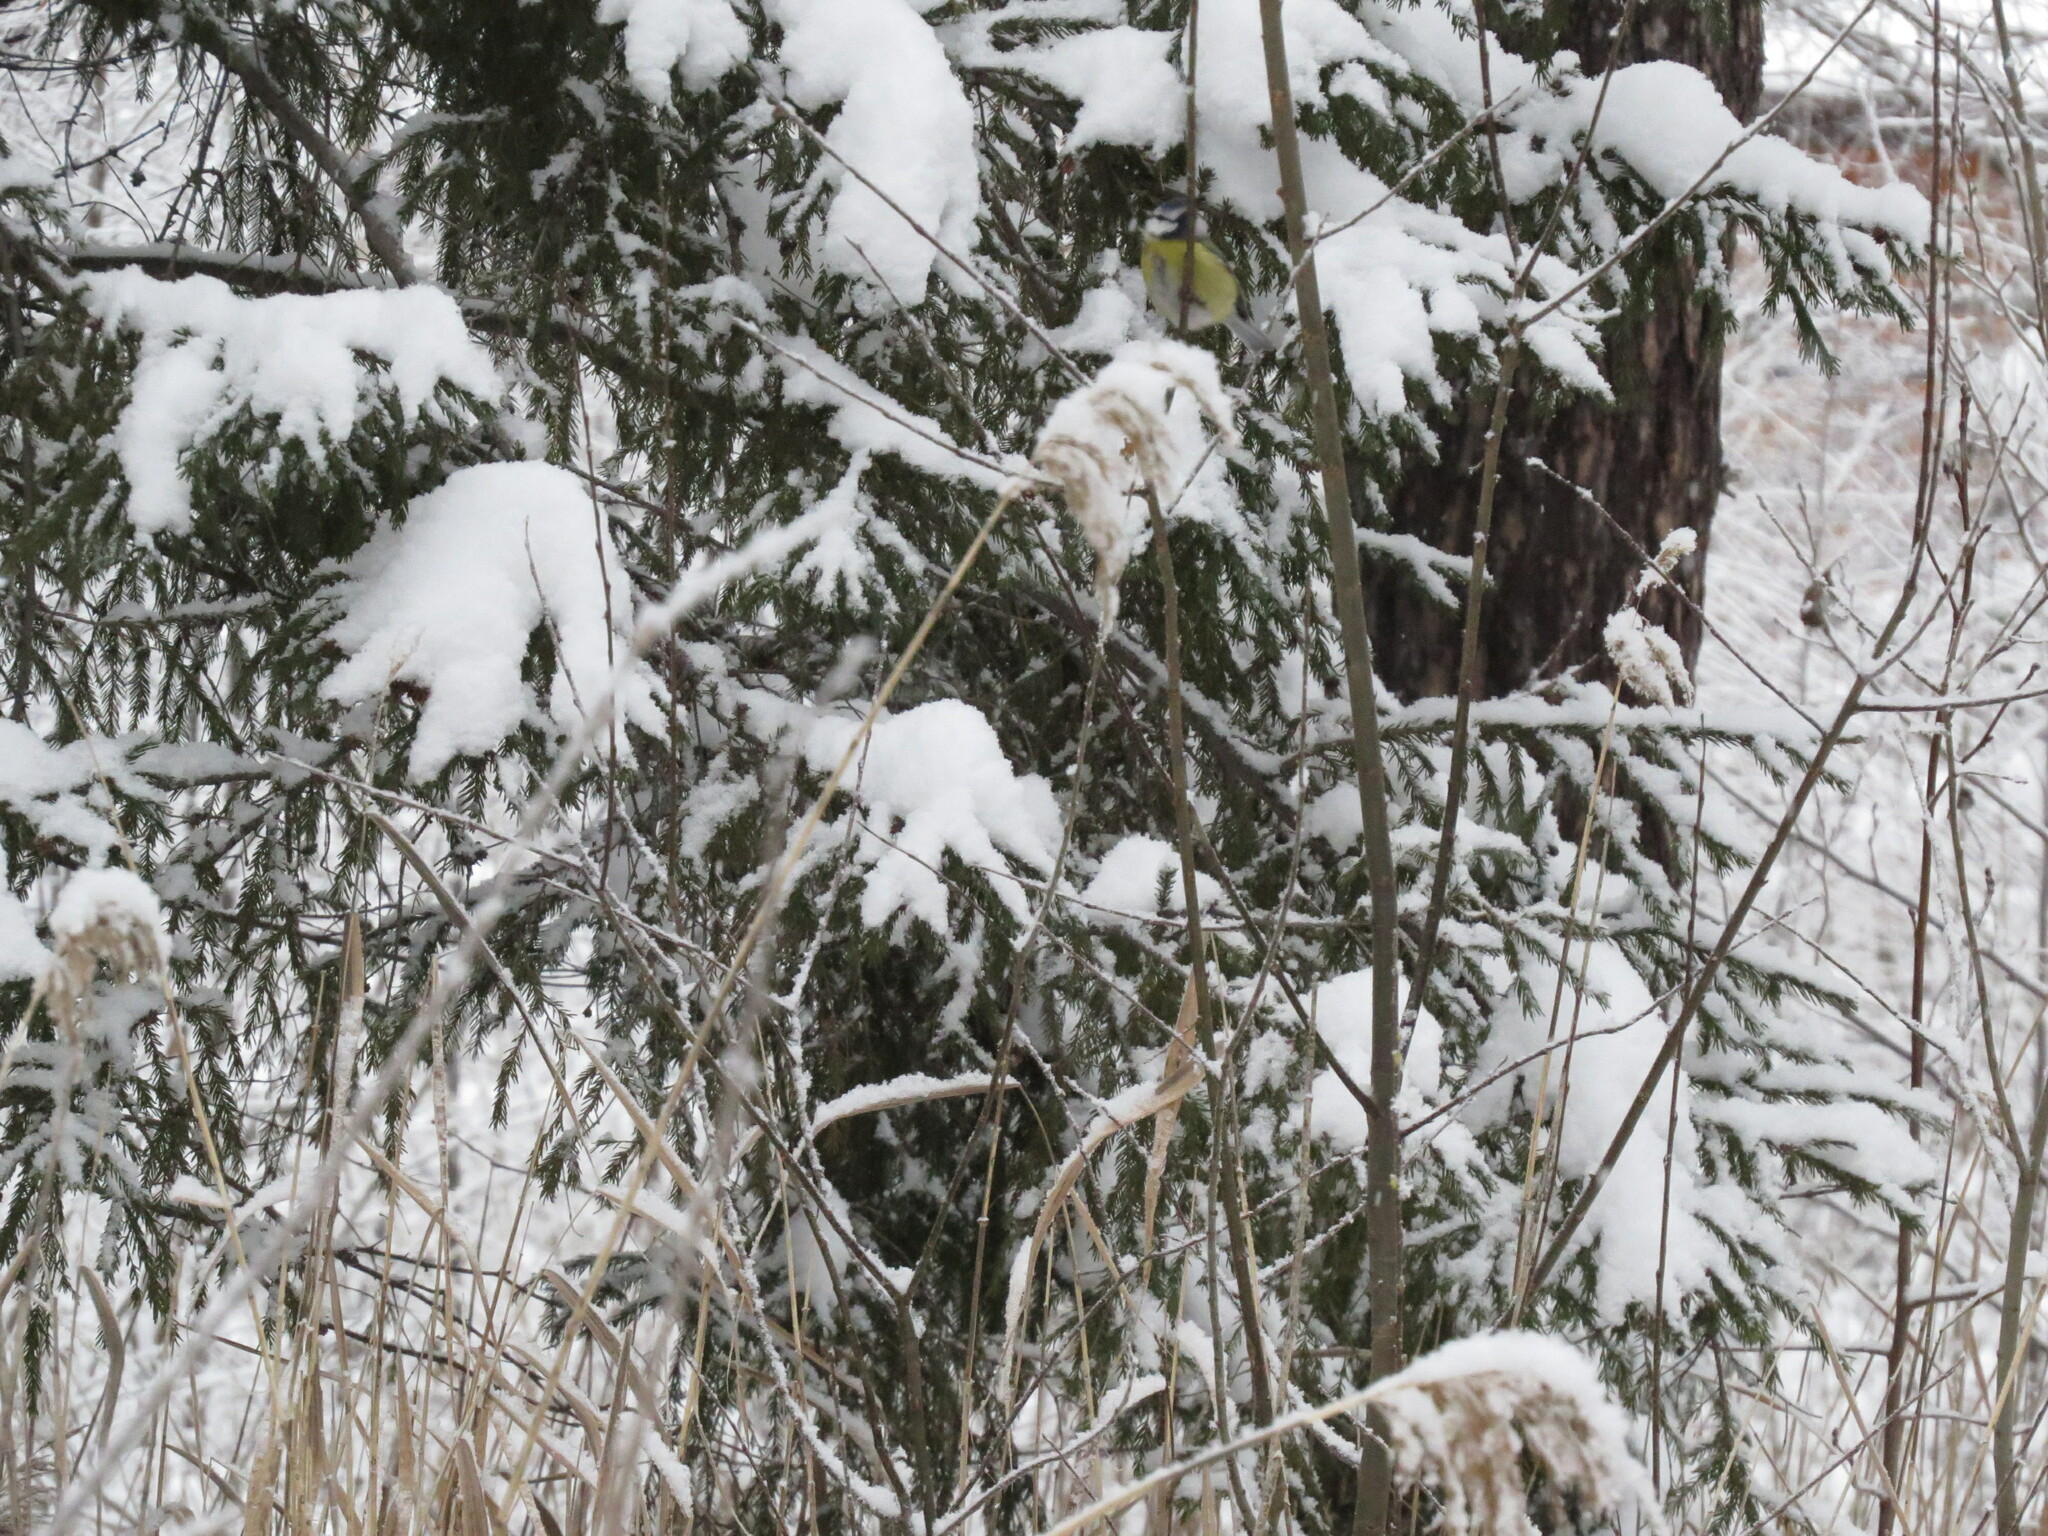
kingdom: Animalia
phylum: Chordata
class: Aves
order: Passeriformes
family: Paridae
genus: Cyanistes
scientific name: Cyanistes caeruleus
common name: Eurasian blue tit
